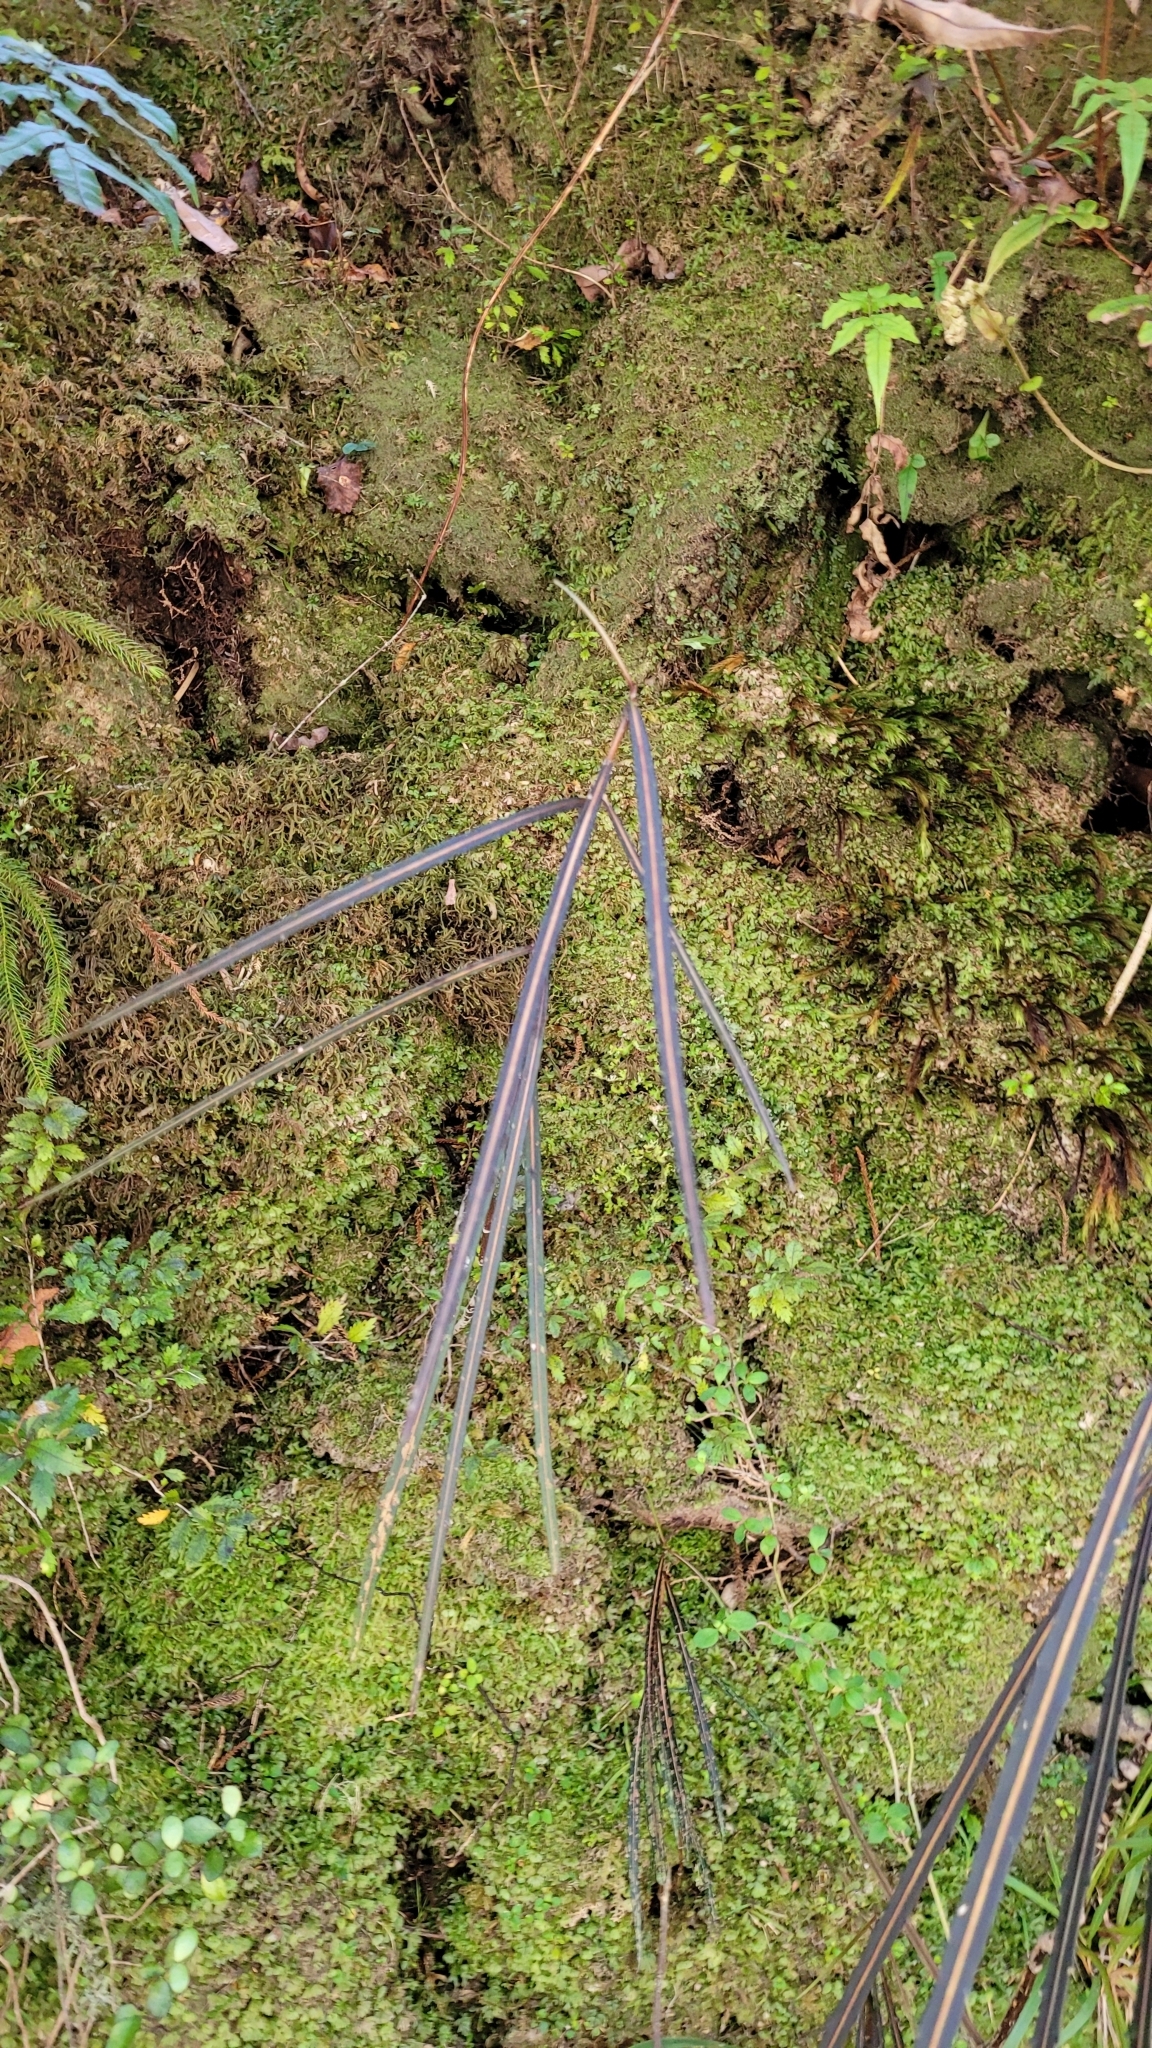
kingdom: Plantae
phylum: Tracheophyta
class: Magnoliopsida
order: Apiales
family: Araliaceae
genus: Pseudopanax
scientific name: Pseudopanax crassifolius
